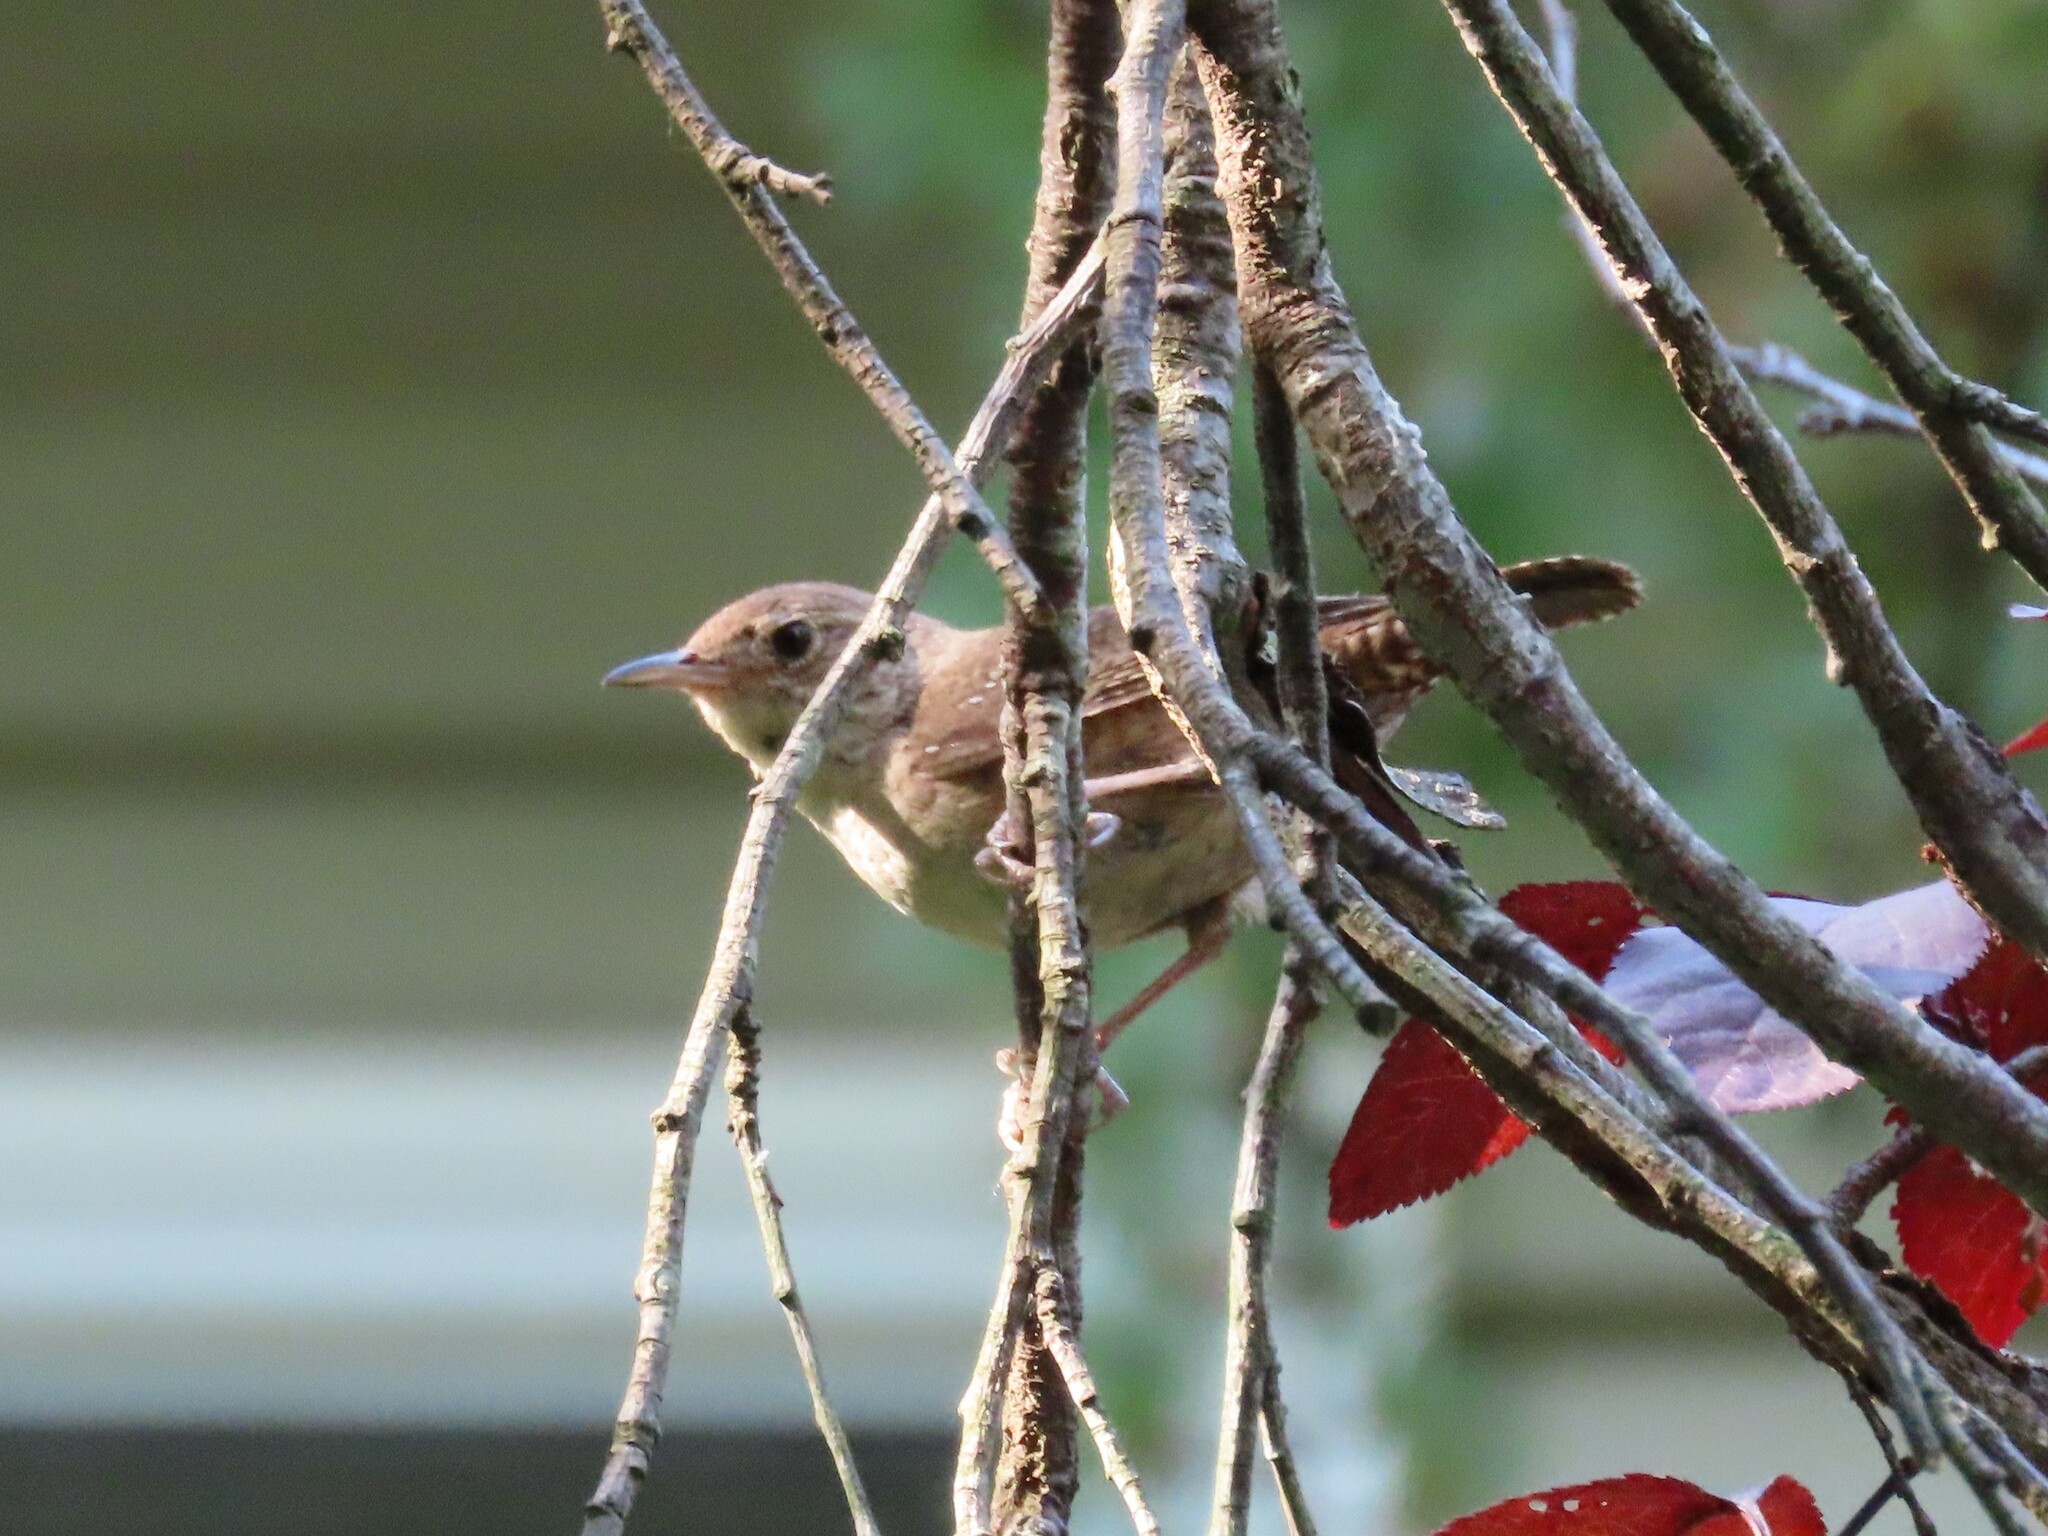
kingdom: Animalia
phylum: Chordata
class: Aves
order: Passeriformes
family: Troglodytidae
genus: Troglodytes
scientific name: Troglodytes aedon
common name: House wren
